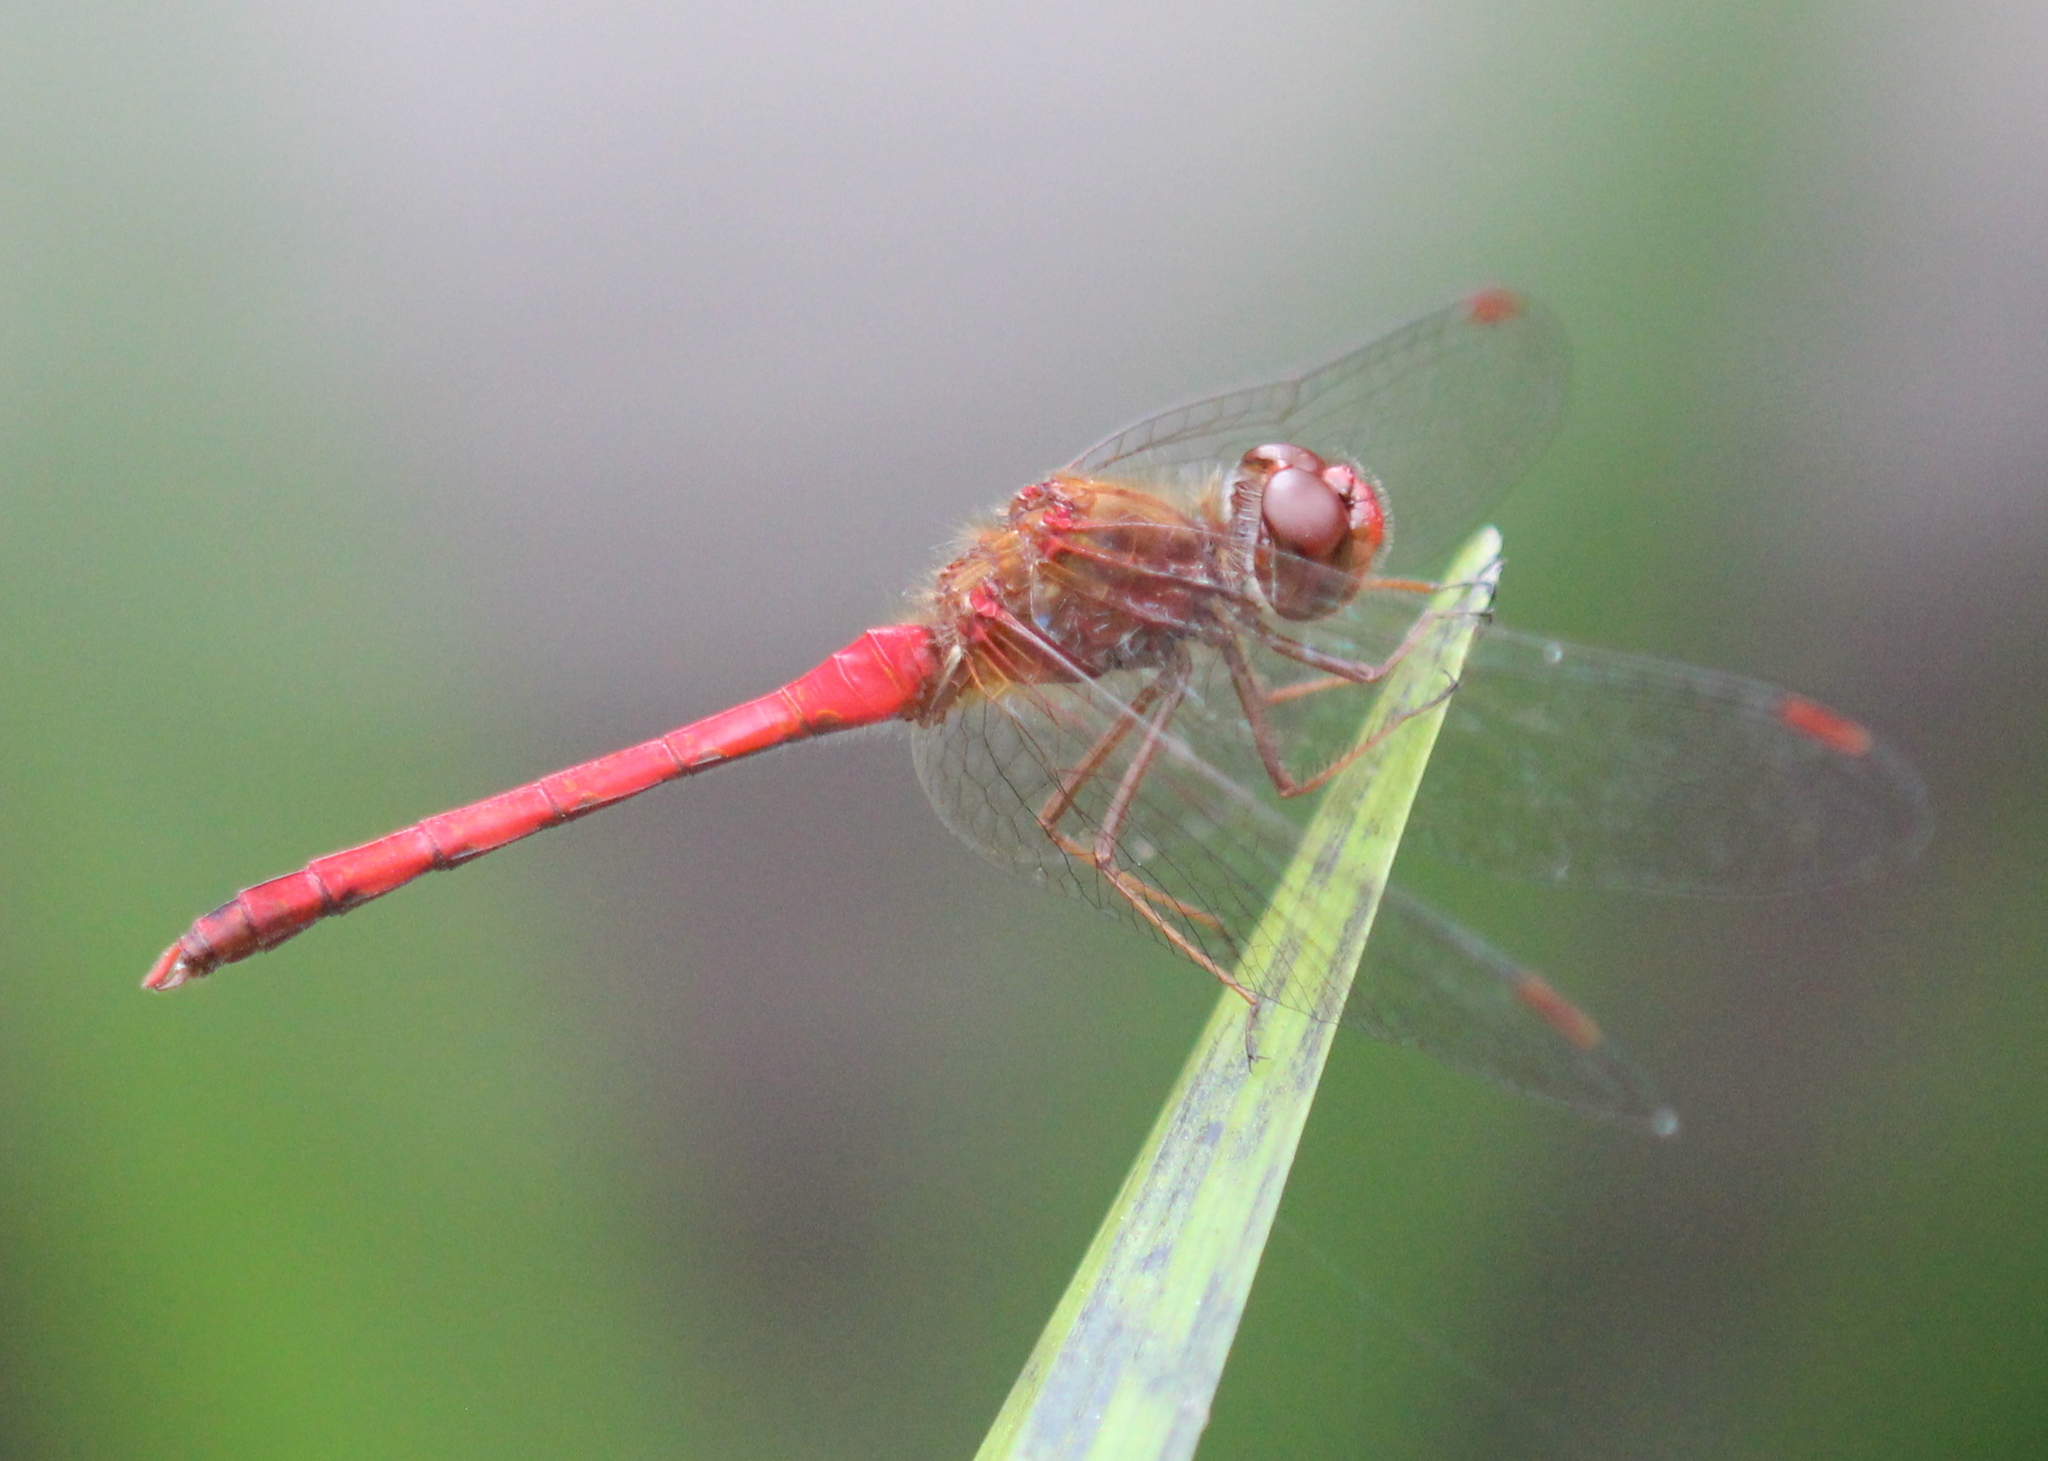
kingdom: Animalia
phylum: Arthropoda
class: Insecta
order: Odonata
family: Libellulidae
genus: Sympetrum
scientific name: Sympetrum vicinum
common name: Autumn meadowhawk
